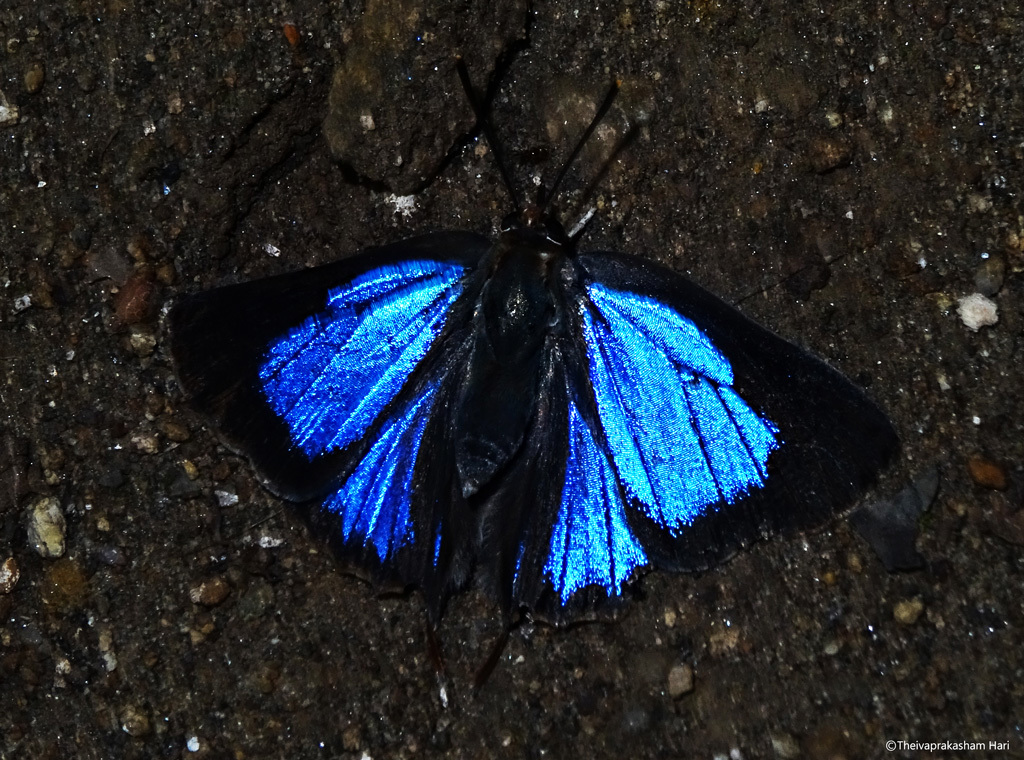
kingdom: Animalia
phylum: Arthropoda
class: Insecta
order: Lepidoptera
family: Lycaenidae
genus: Iraota
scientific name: Iraota timoleon
